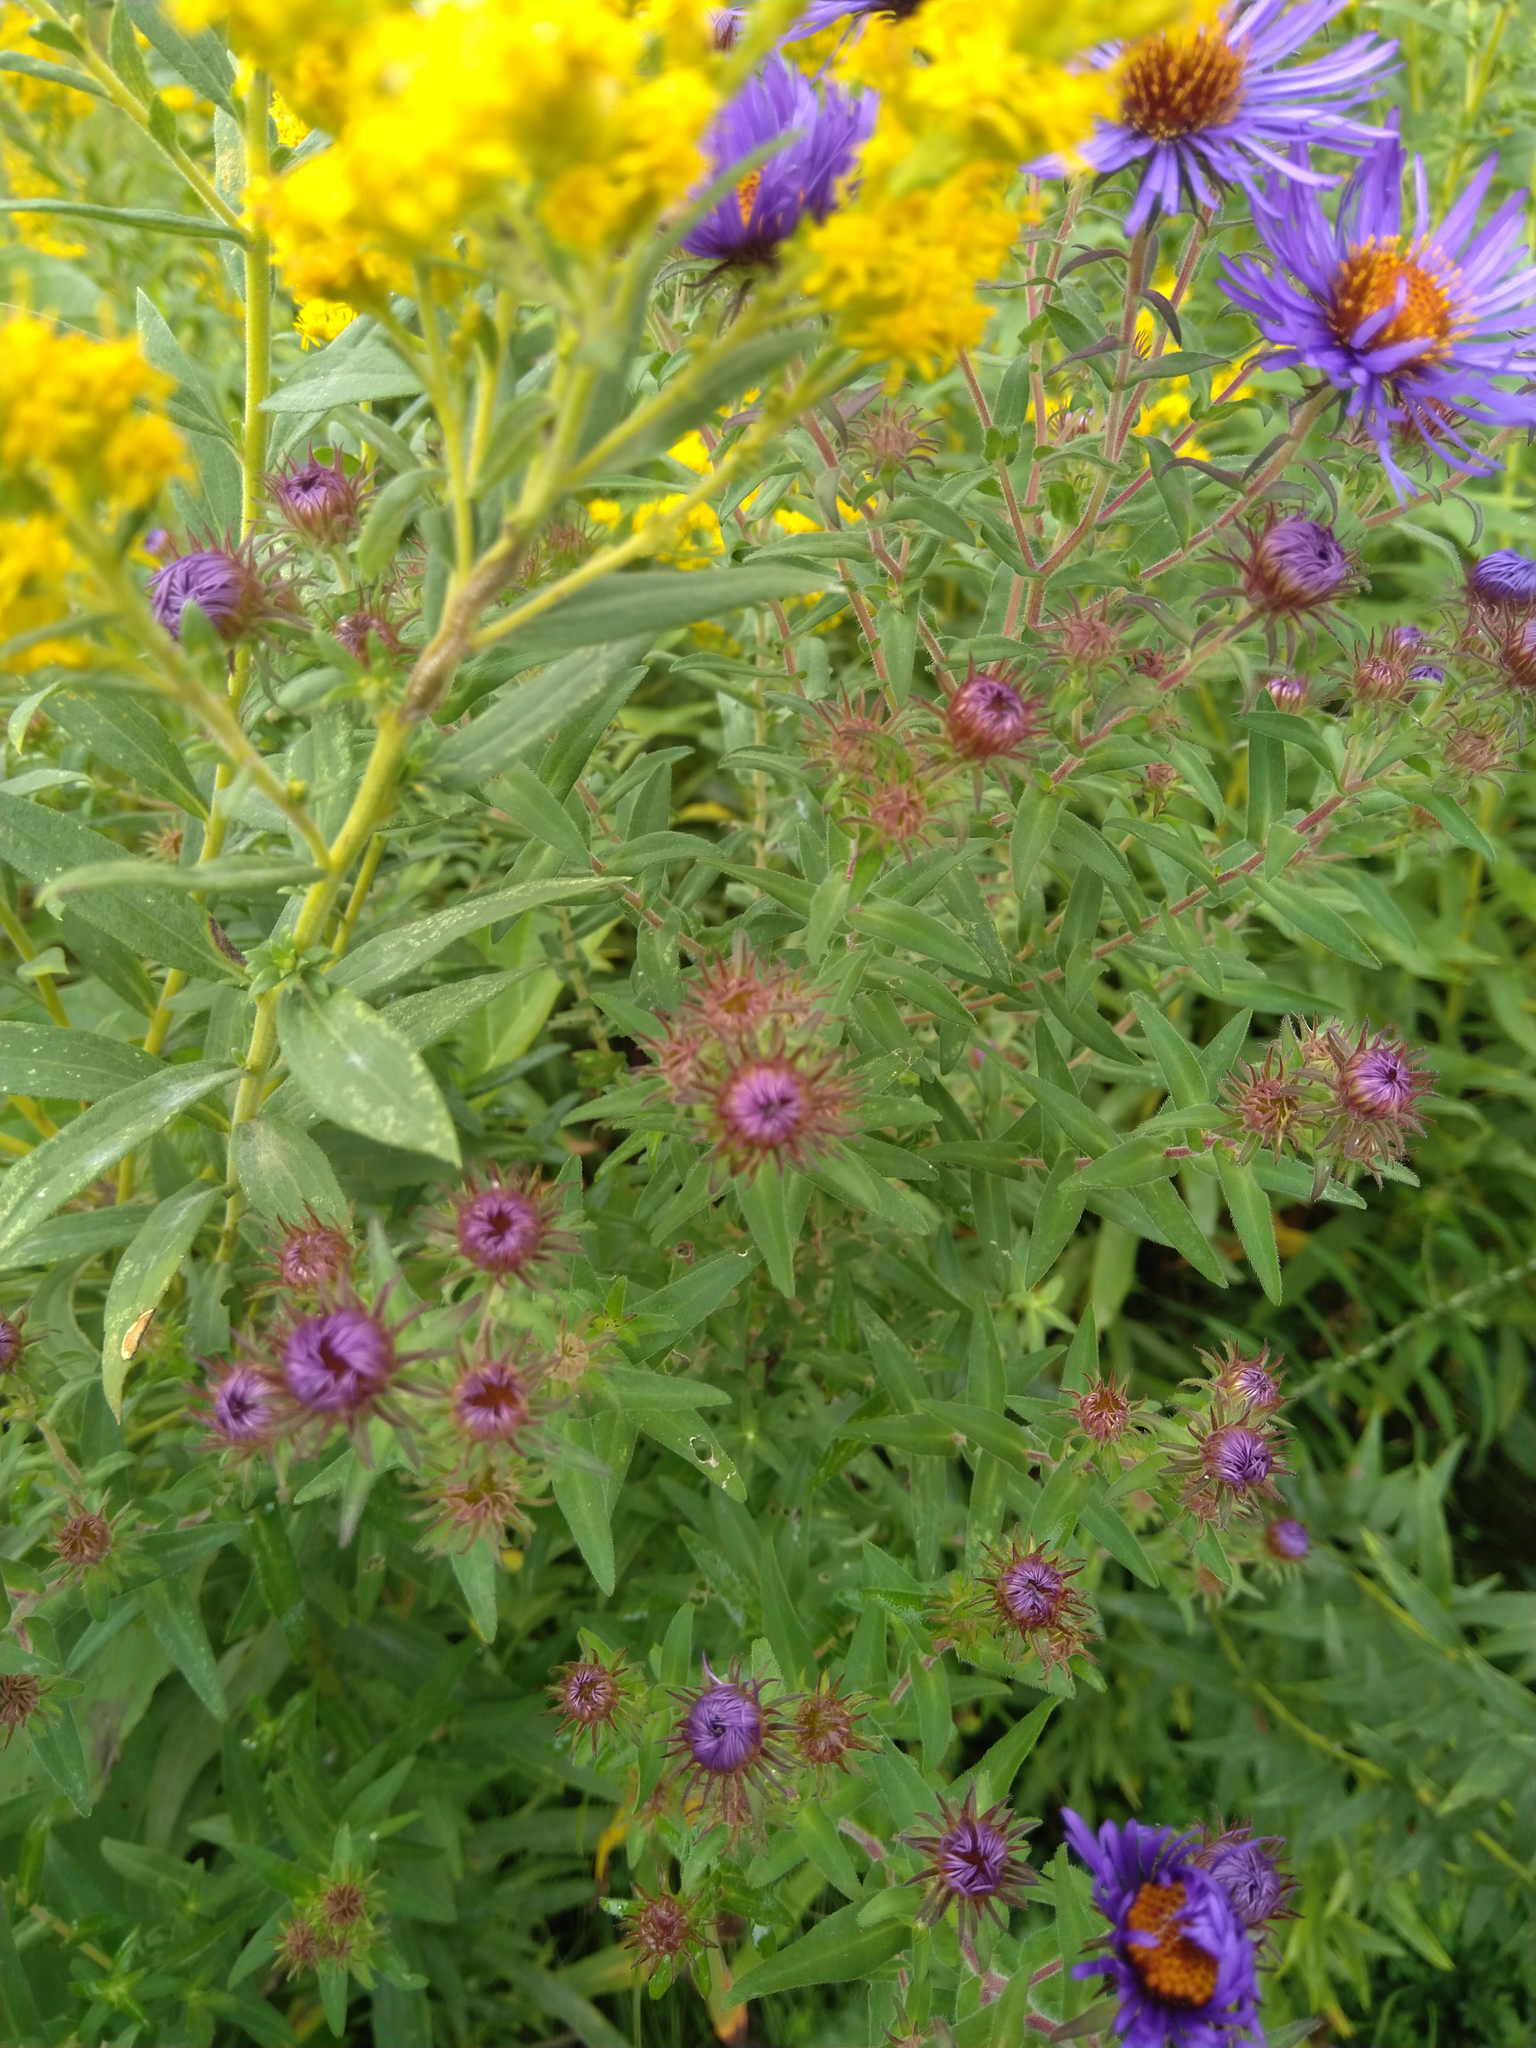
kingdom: Plantae
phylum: Tracheophyta
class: Magnoliopsida
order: Asterales
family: Asteraceae
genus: Symphyotrichum
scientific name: Symphyotrichum novae-angliae
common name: Michaelmas daisy
